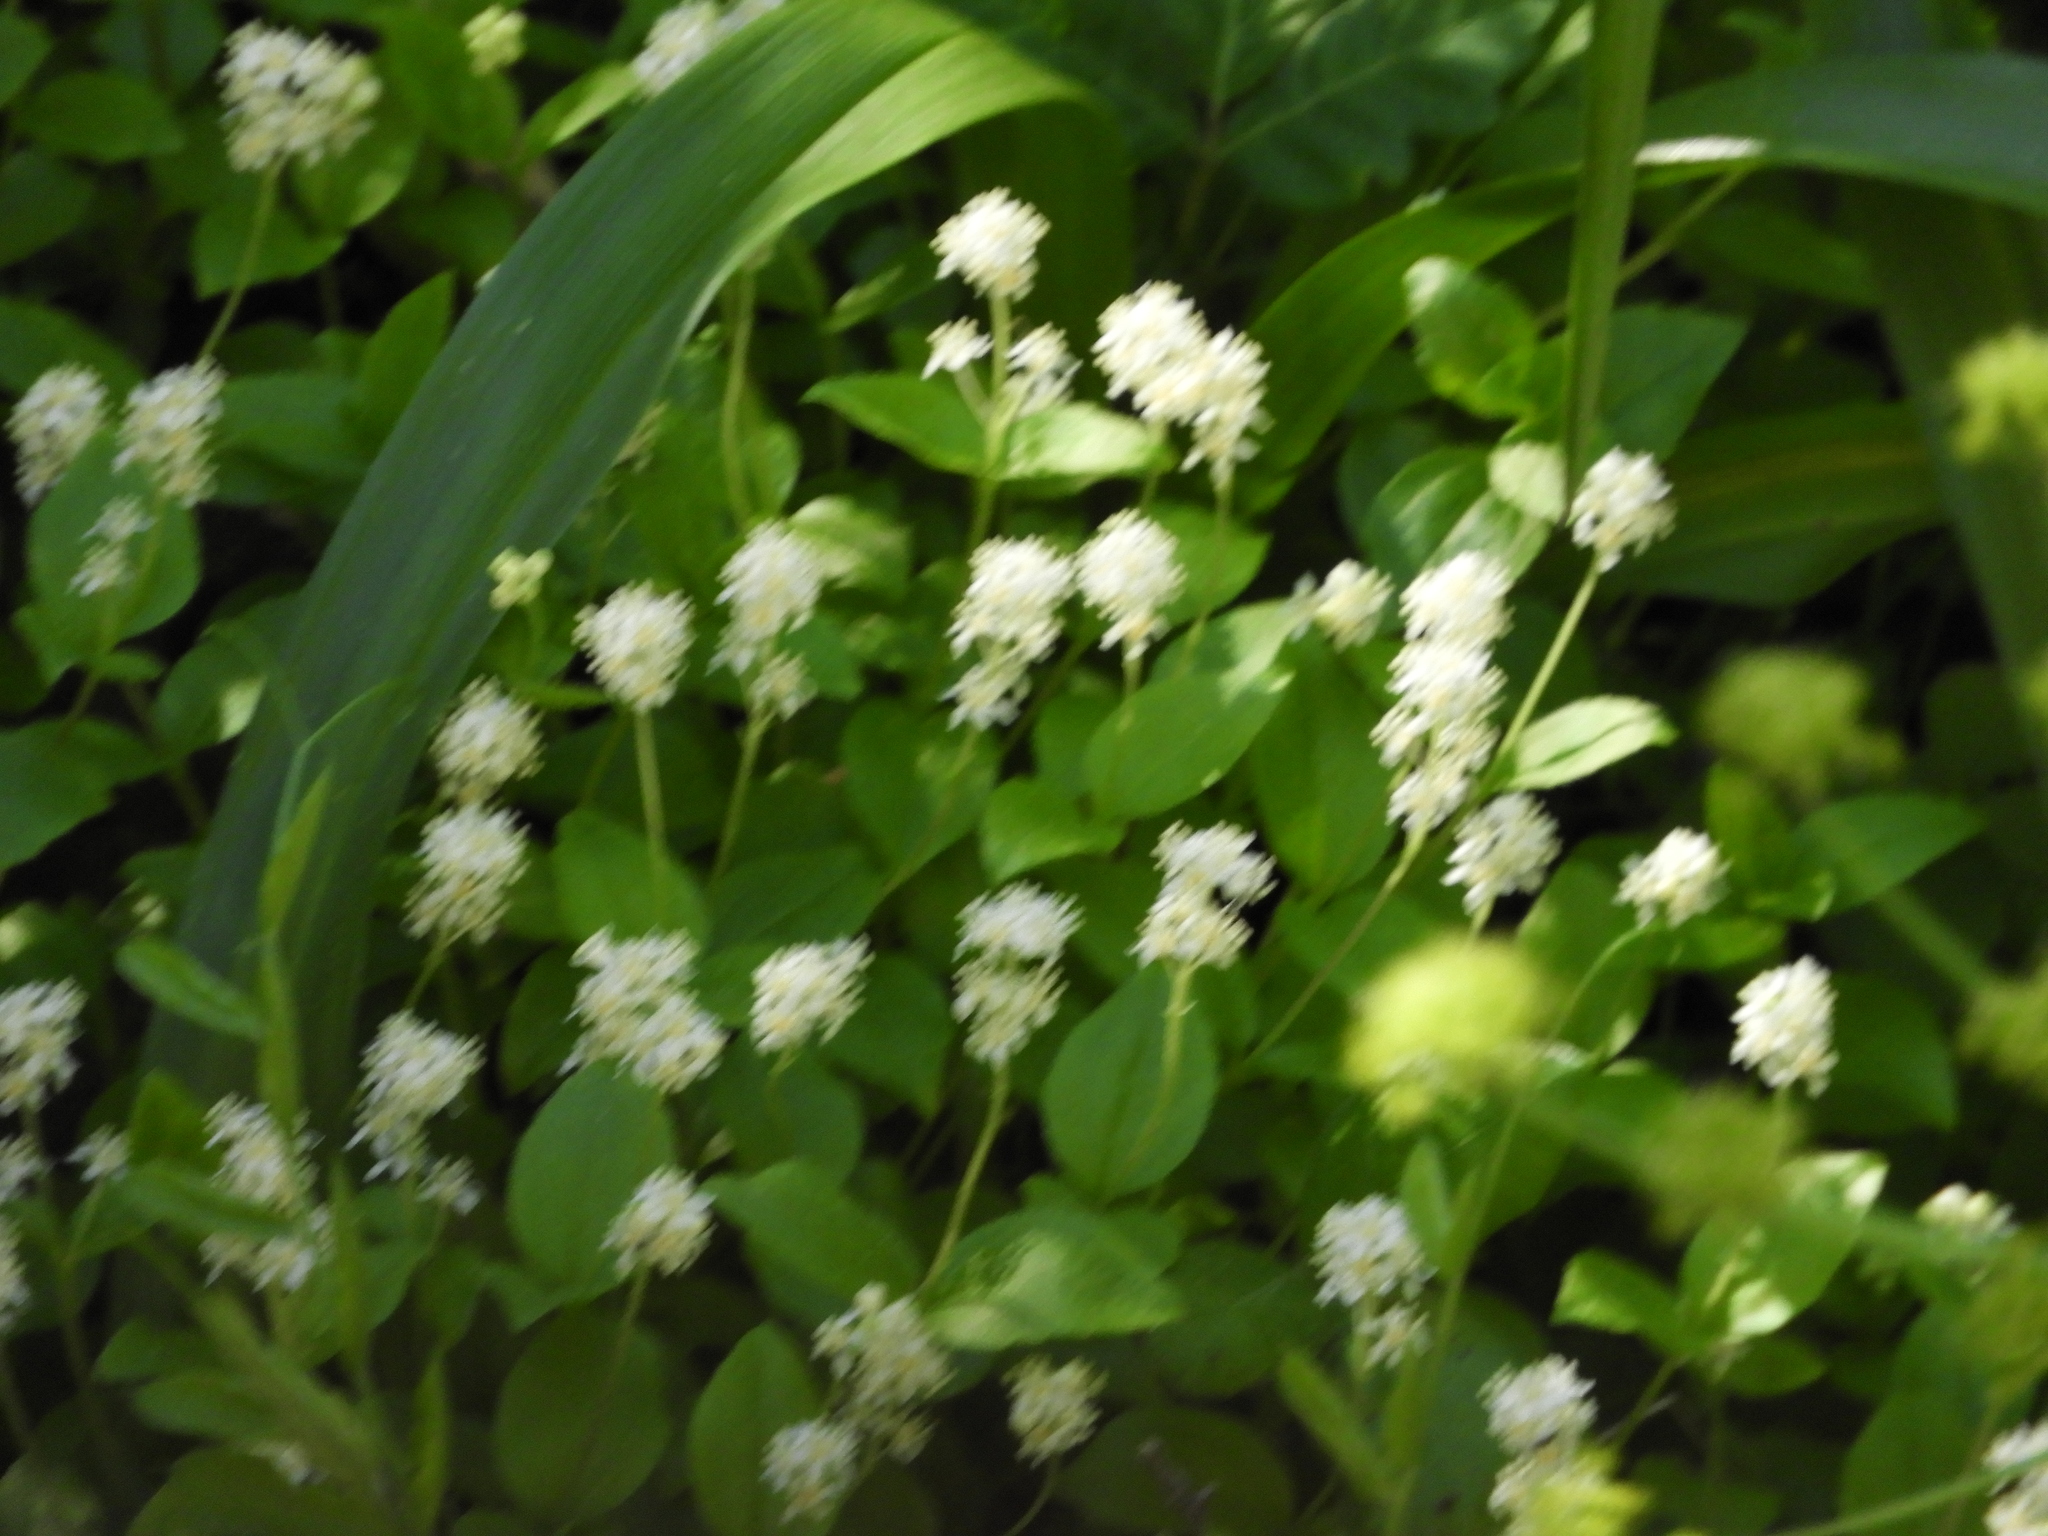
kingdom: Plantae
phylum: Tracheophyta
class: Magnoliopsida
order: Cornales
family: Hydrangeaceae
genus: Whipplea
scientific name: Whipplea modesta
